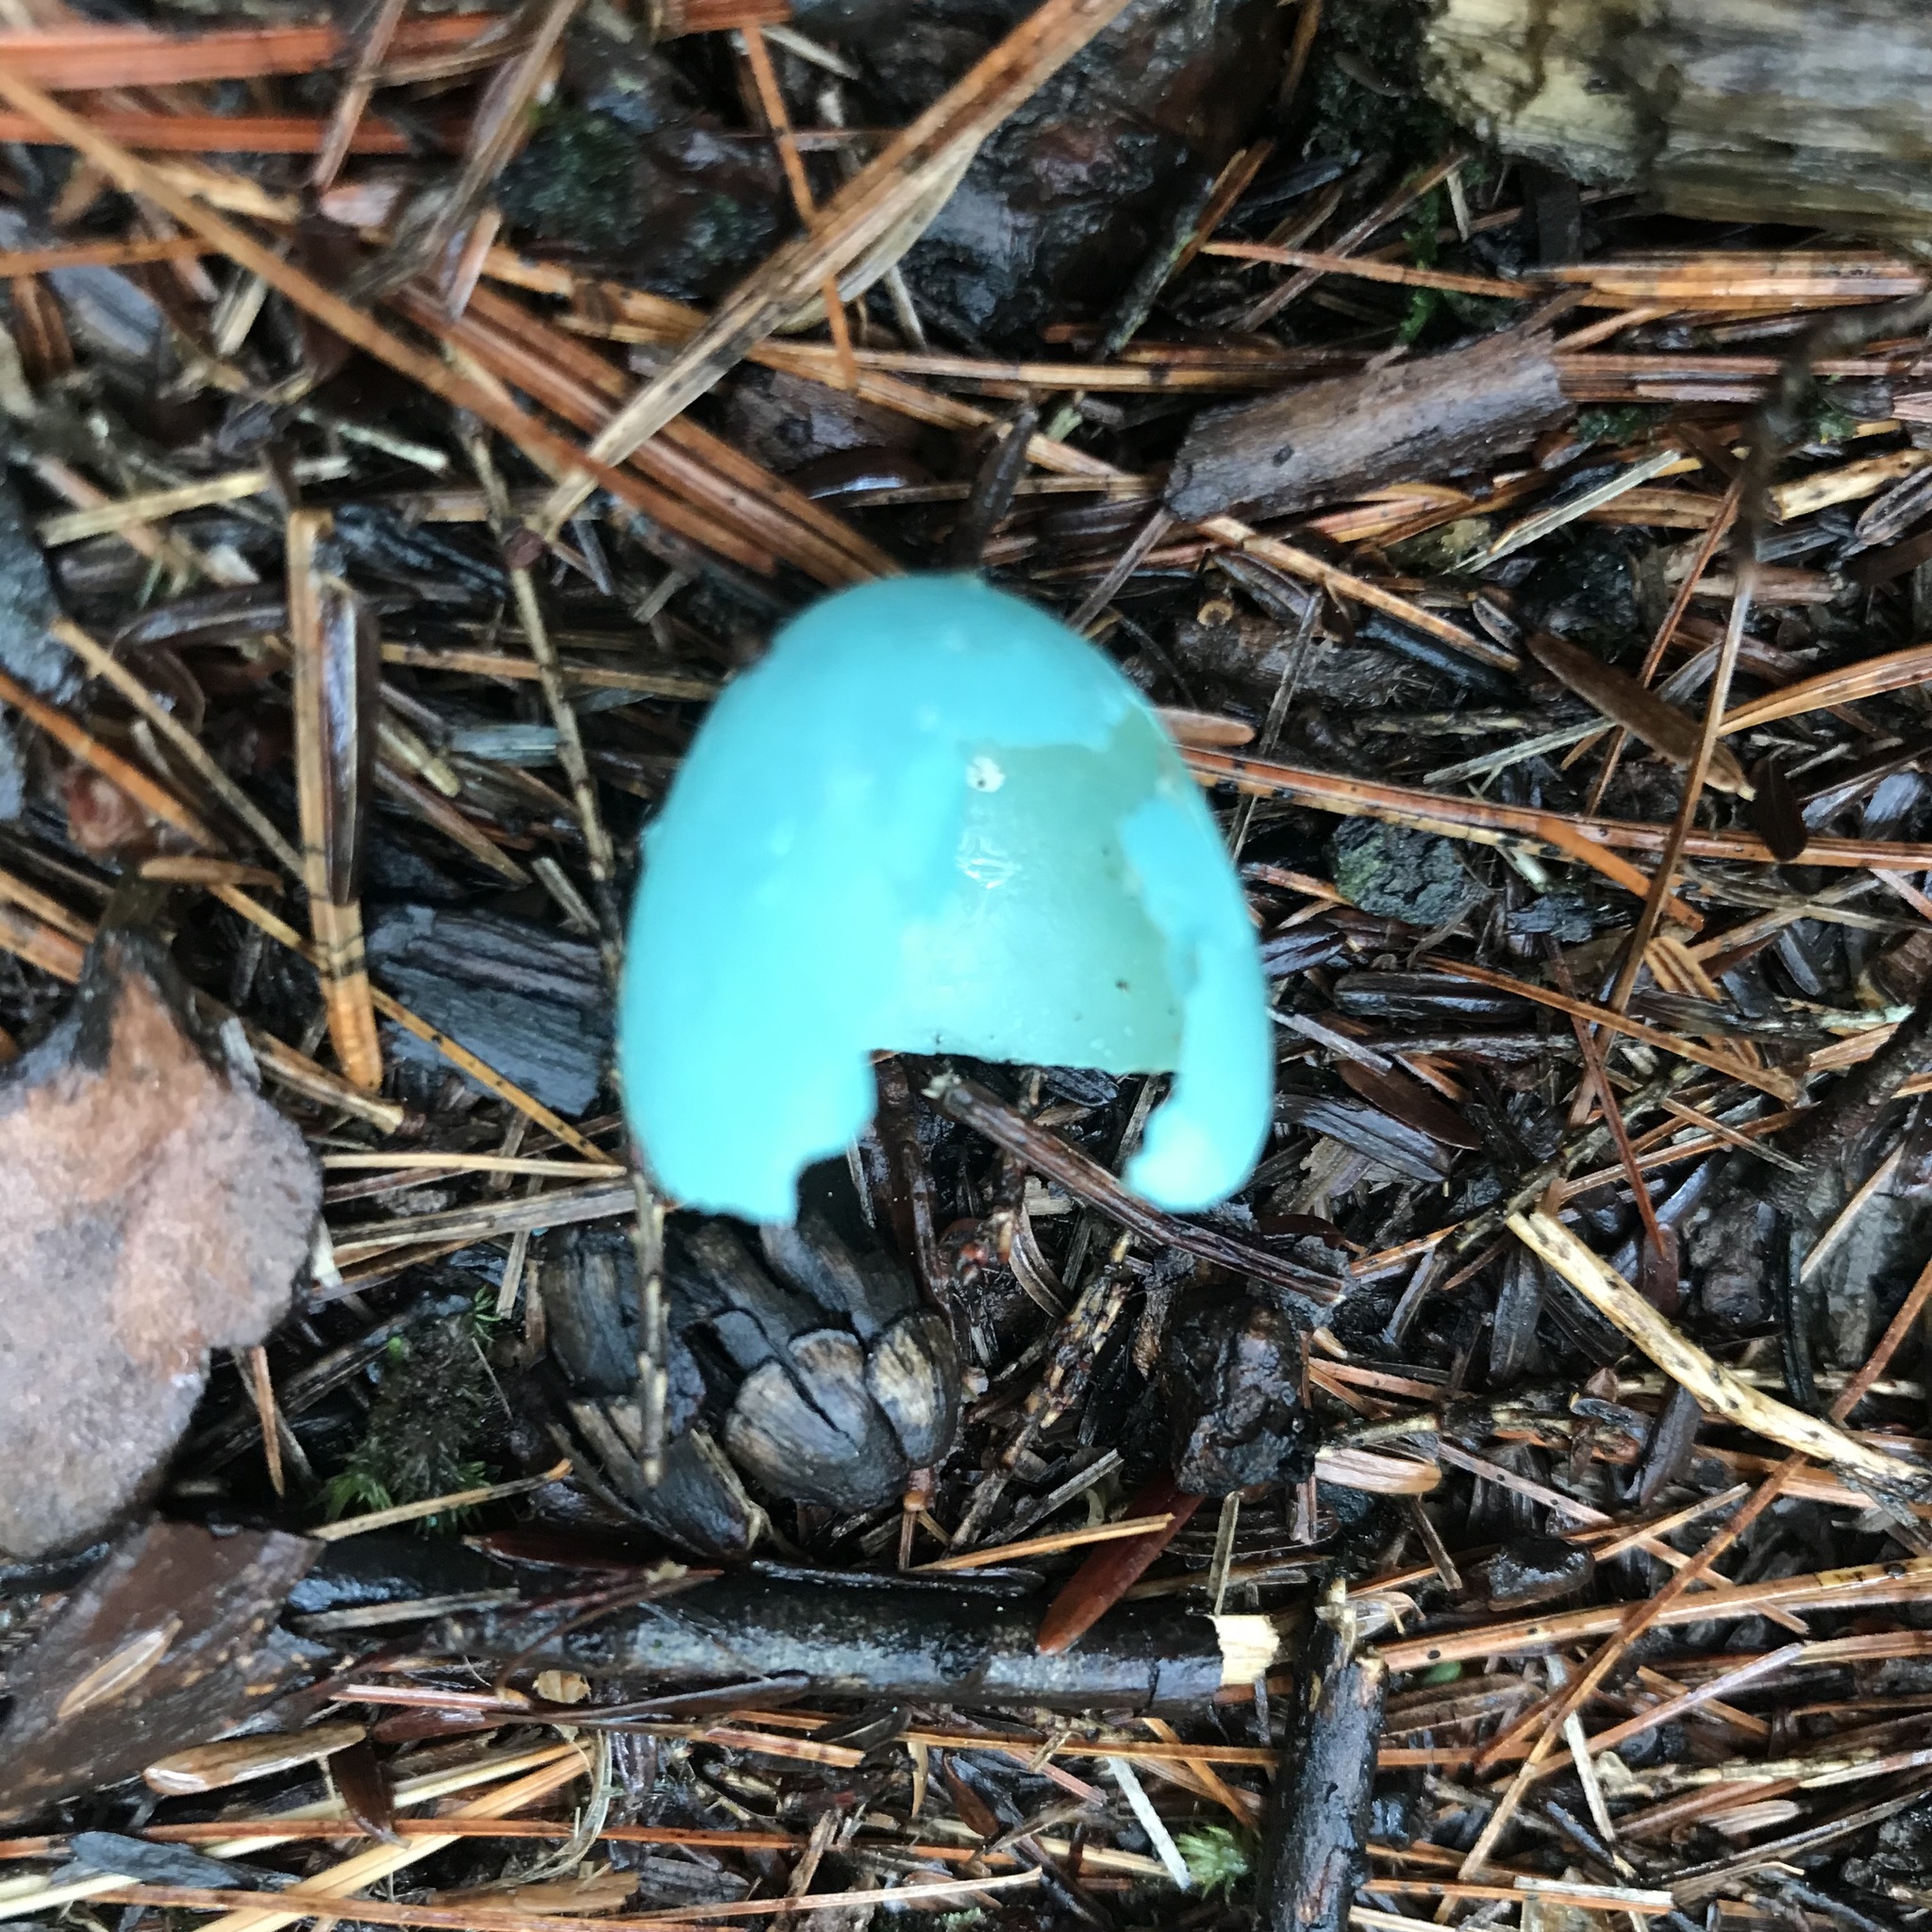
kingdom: Animalia
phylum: Chordata
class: Aves
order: Passeriformes
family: Turdidae
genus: Turdus
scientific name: Turdus migratorius
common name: American robin
